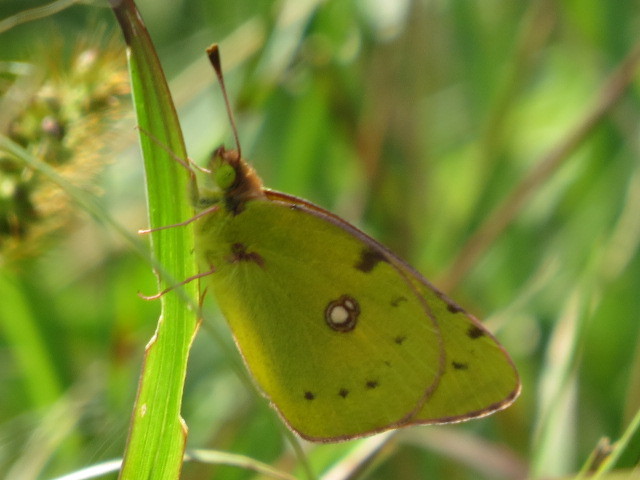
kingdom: Animalia
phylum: Arthropoda
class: Insecta
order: Lepidoptera
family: Pieridae
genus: Colias
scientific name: Colias croceus
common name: Clouded yellow
